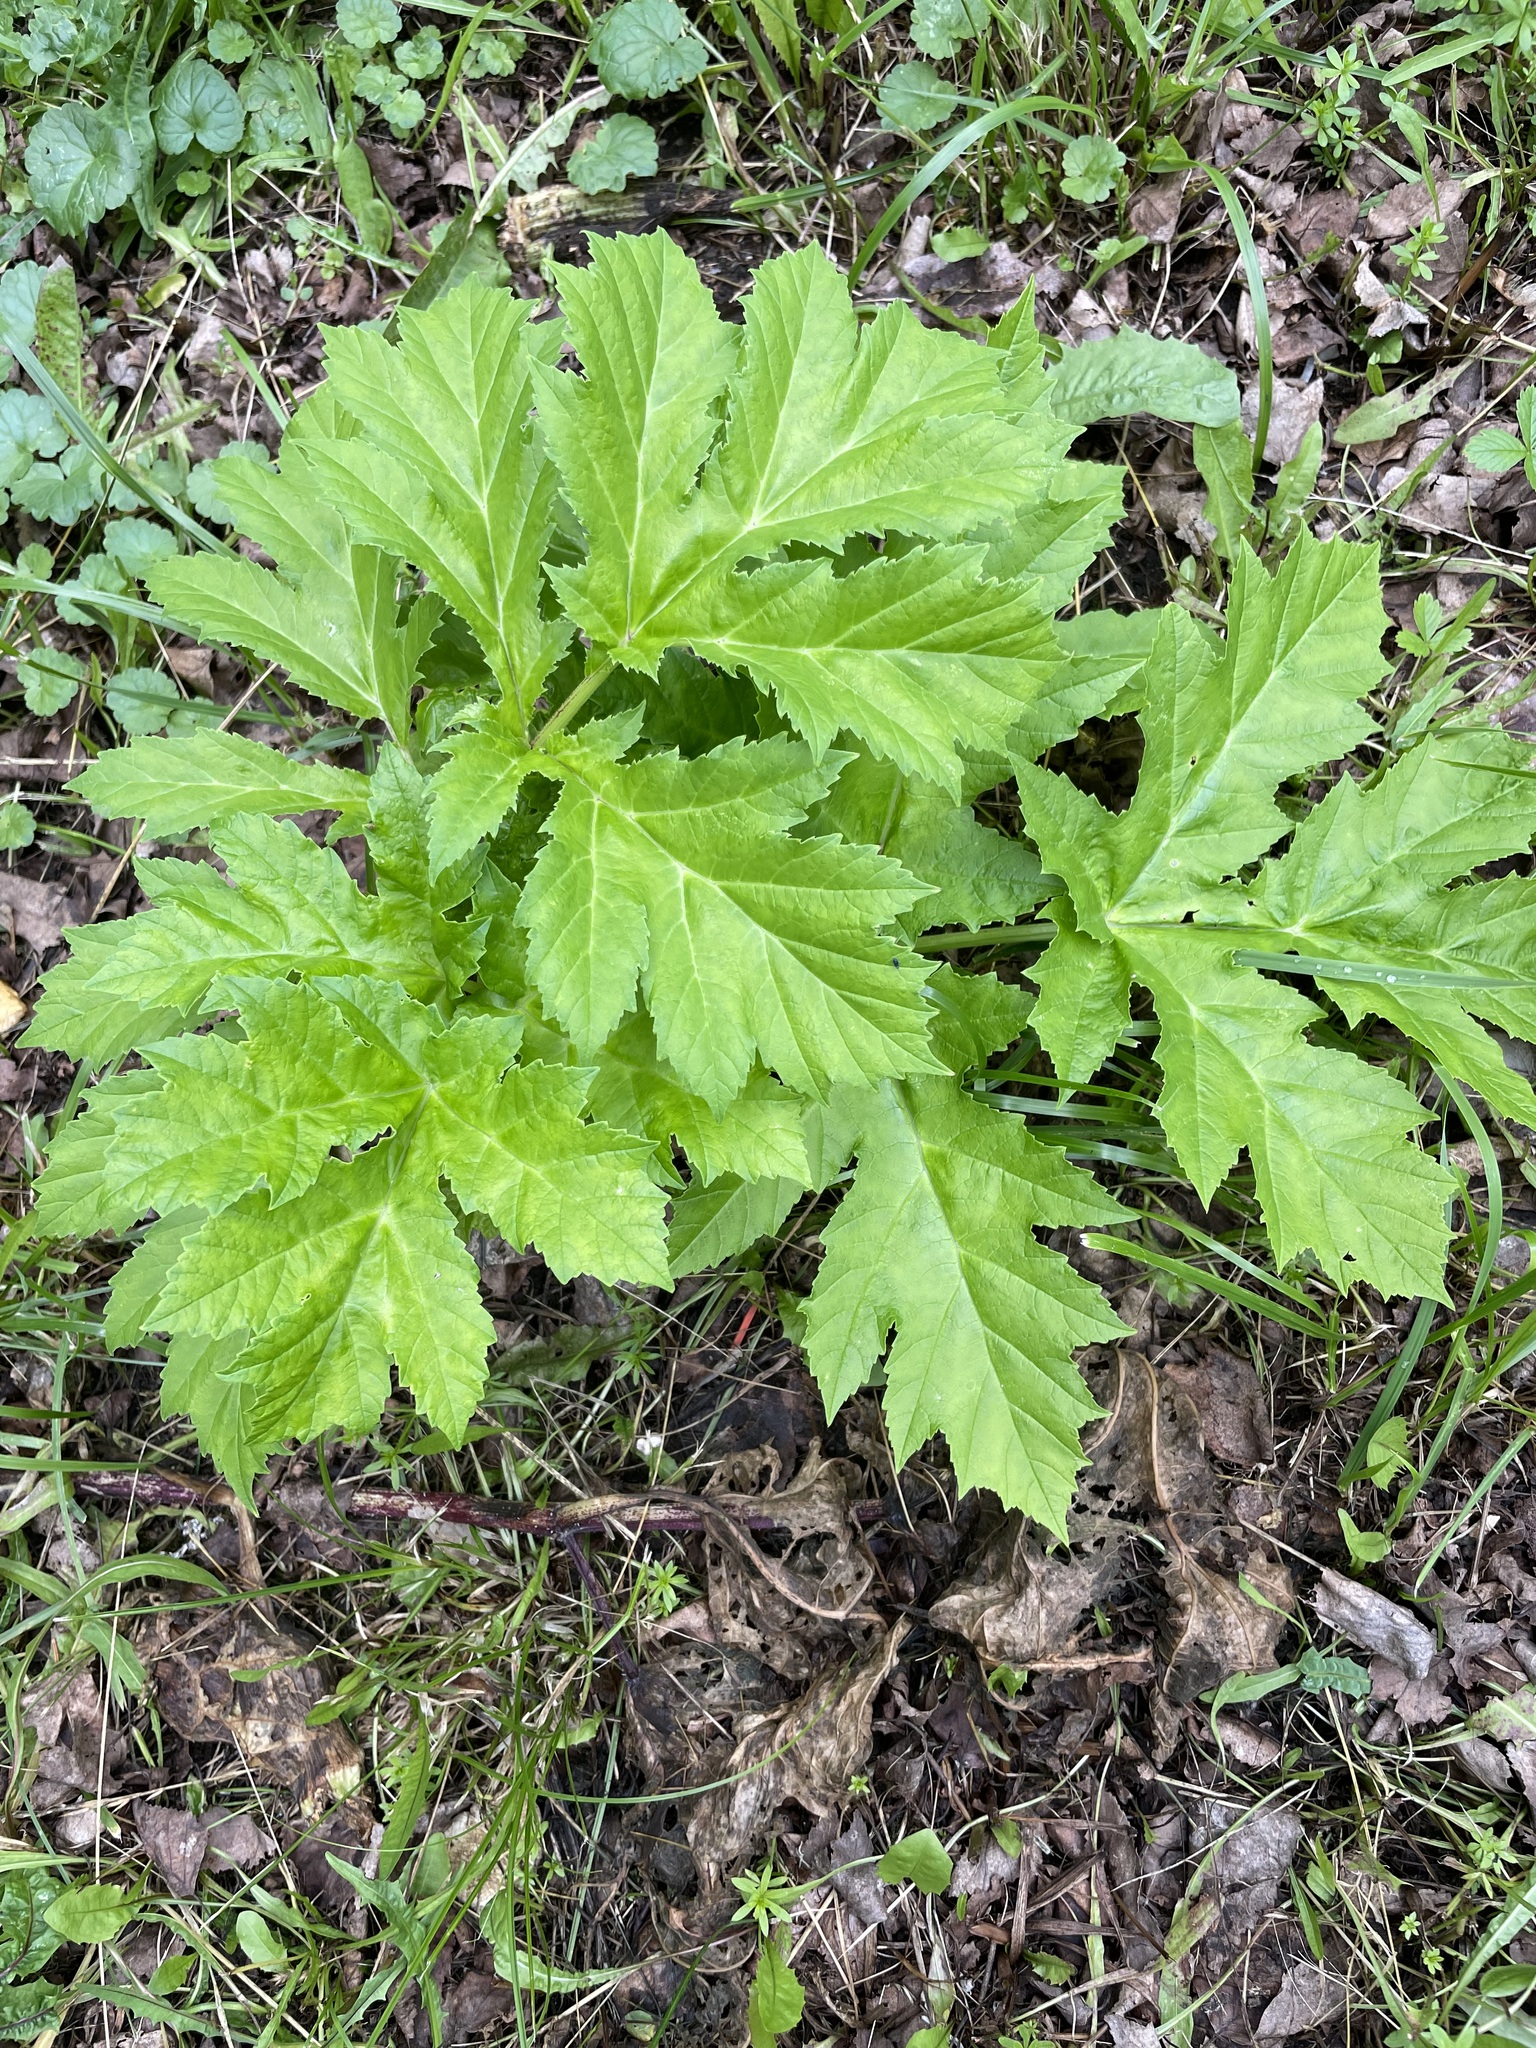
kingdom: Plantae
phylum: Tracheophyta
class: Magnoliopsida
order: Apiales
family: Apiaceae
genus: Heracleum
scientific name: Heracleum sosnowskyi
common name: Sosnowsky's hogweed
